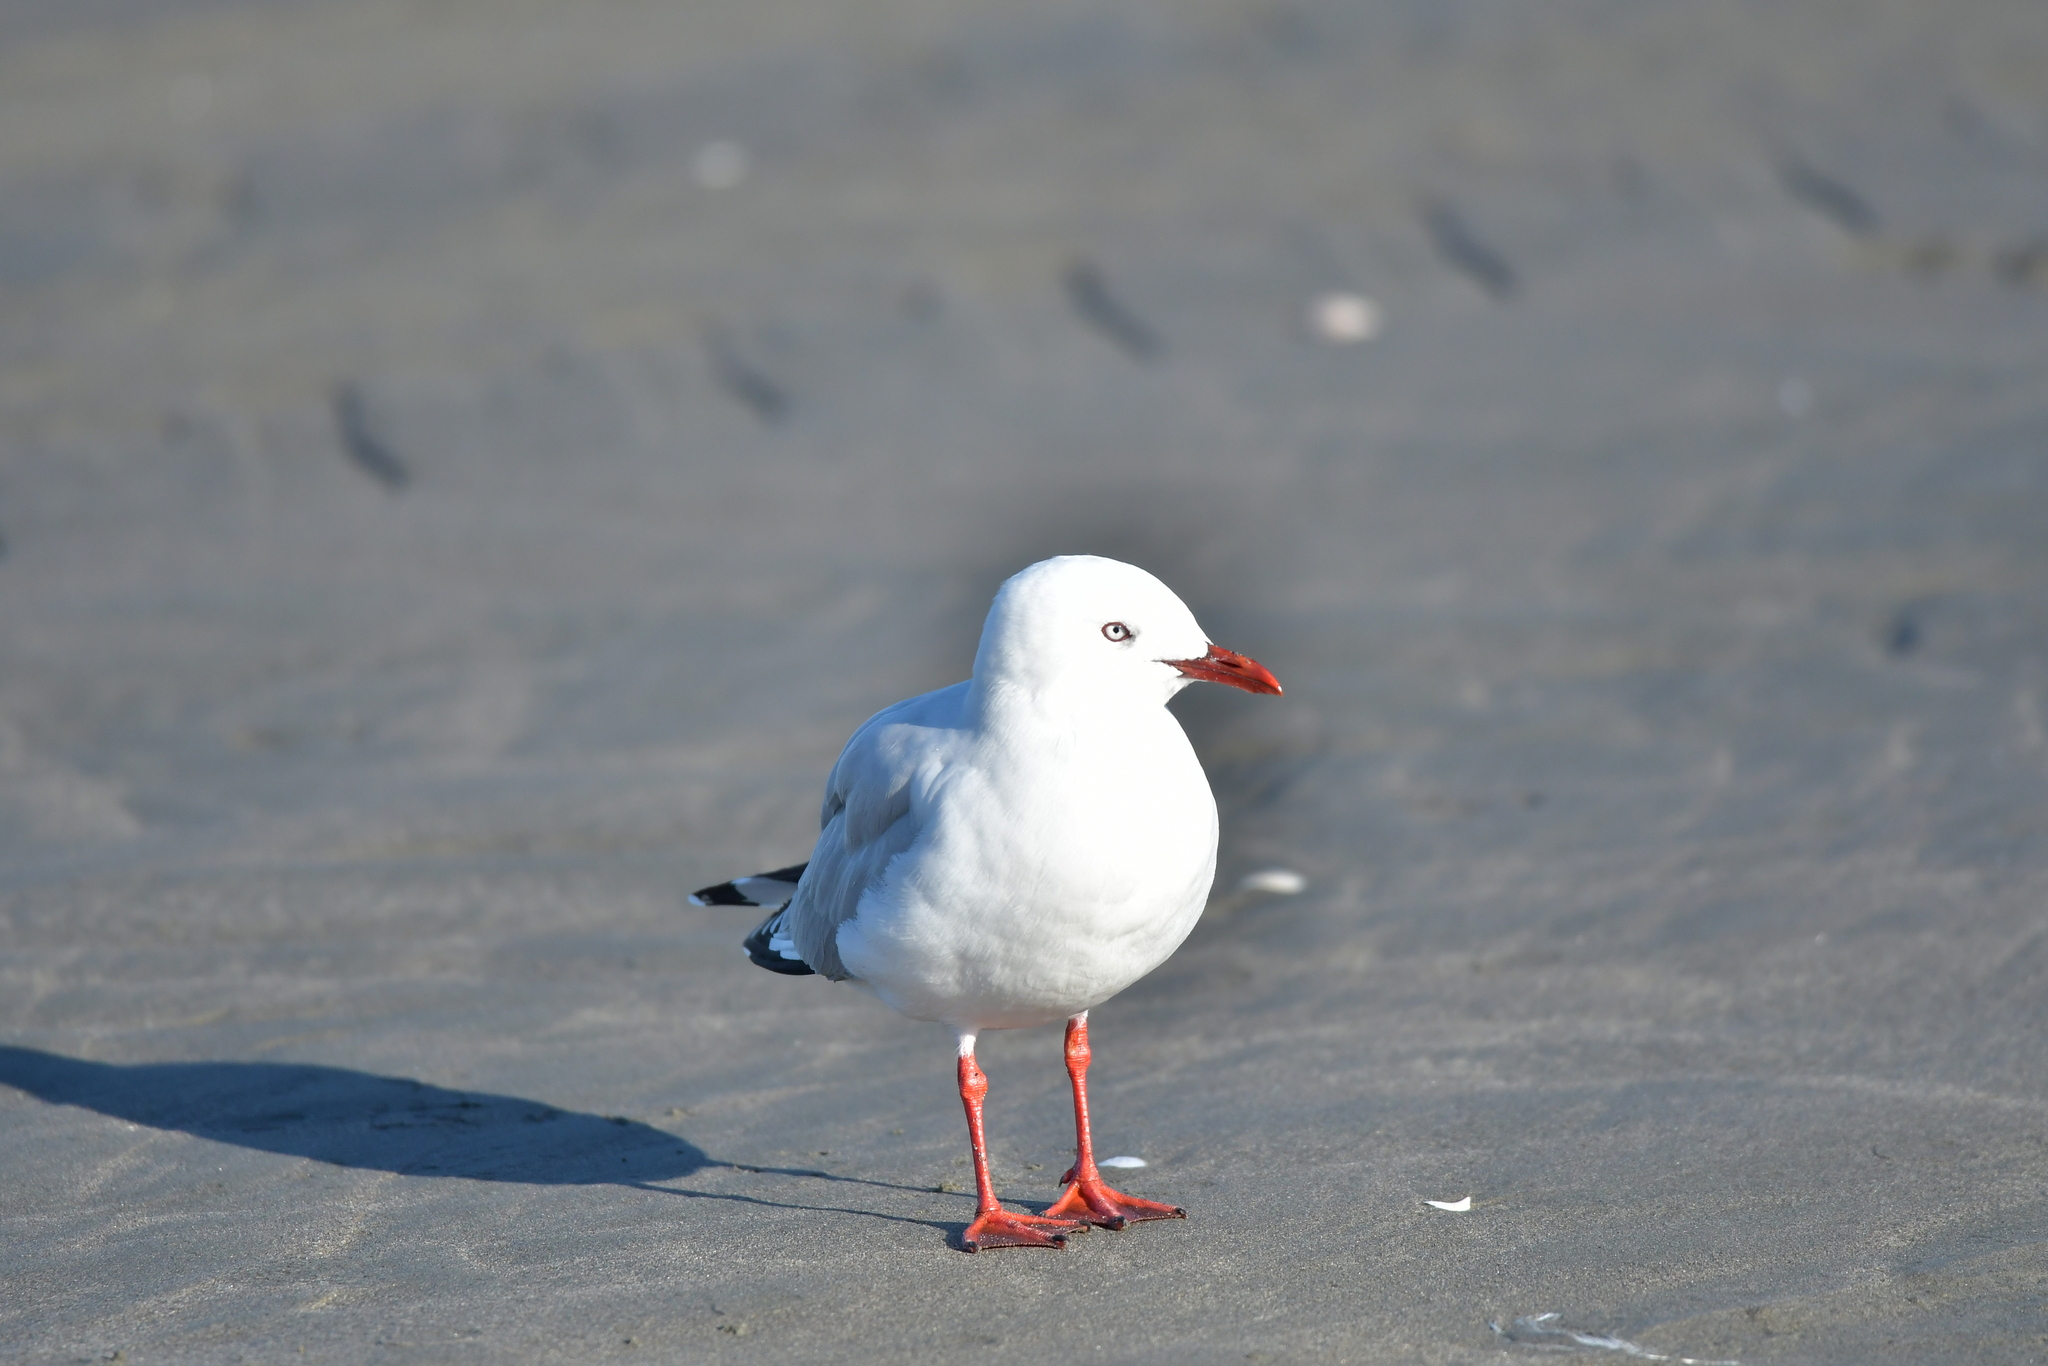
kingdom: Animalia
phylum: Chordata
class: Aves
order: Charadriiformes
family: Laridae
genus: Chroicocephalus
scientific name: Chroicocephalus novaehollandiae
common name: Silver gull
